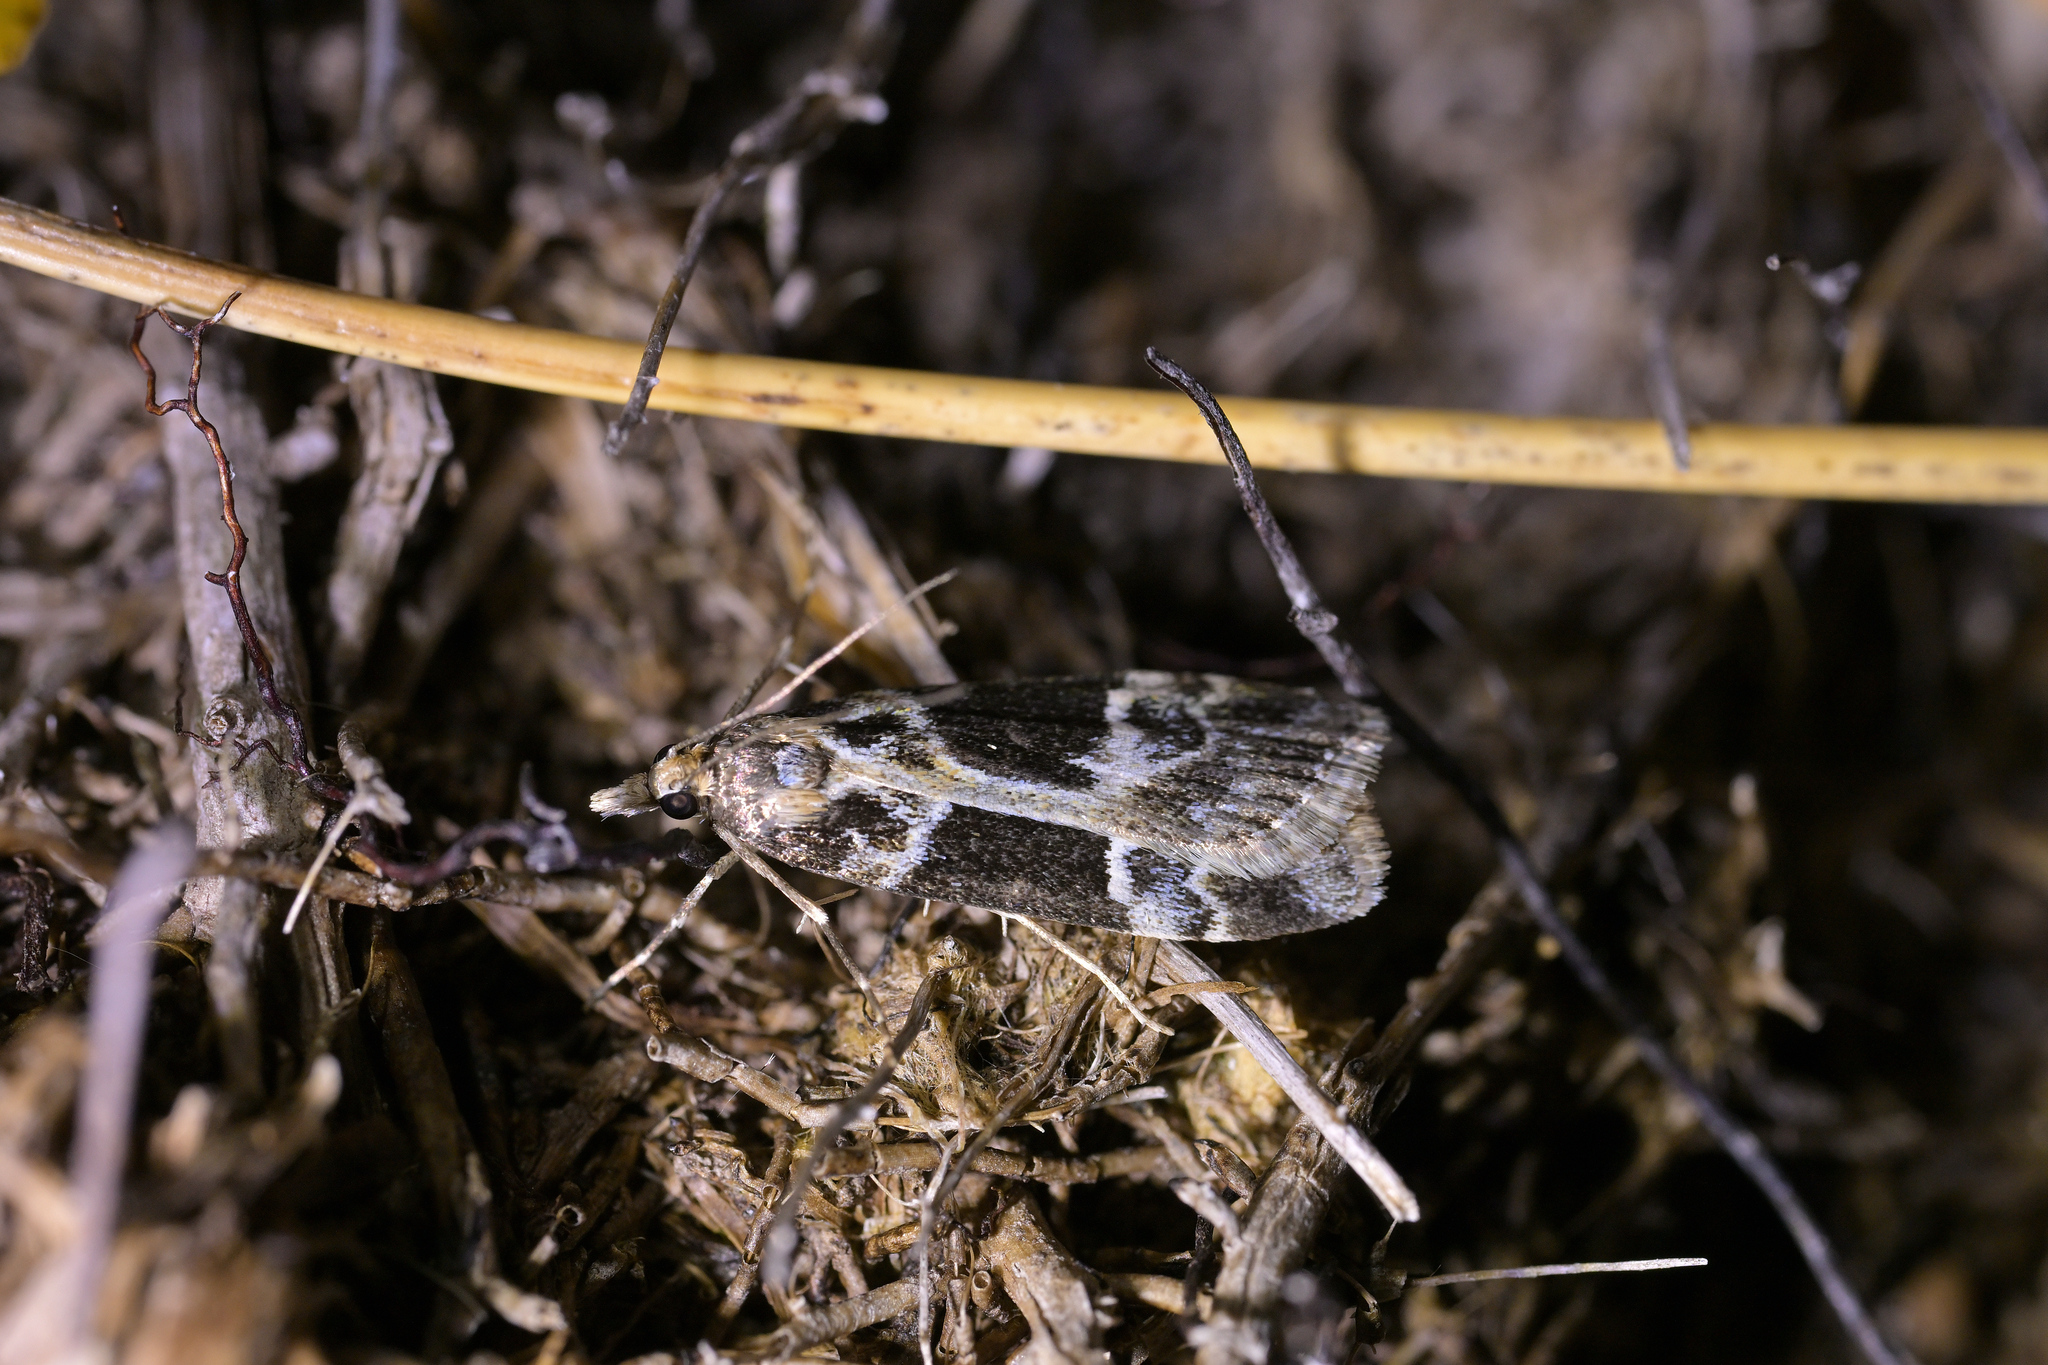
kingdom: Animalia
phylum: Arthropoda
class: Insecta
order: Lepidoptera
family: Crambidae
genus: Eudonia
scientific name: Eudonia melanaegis
